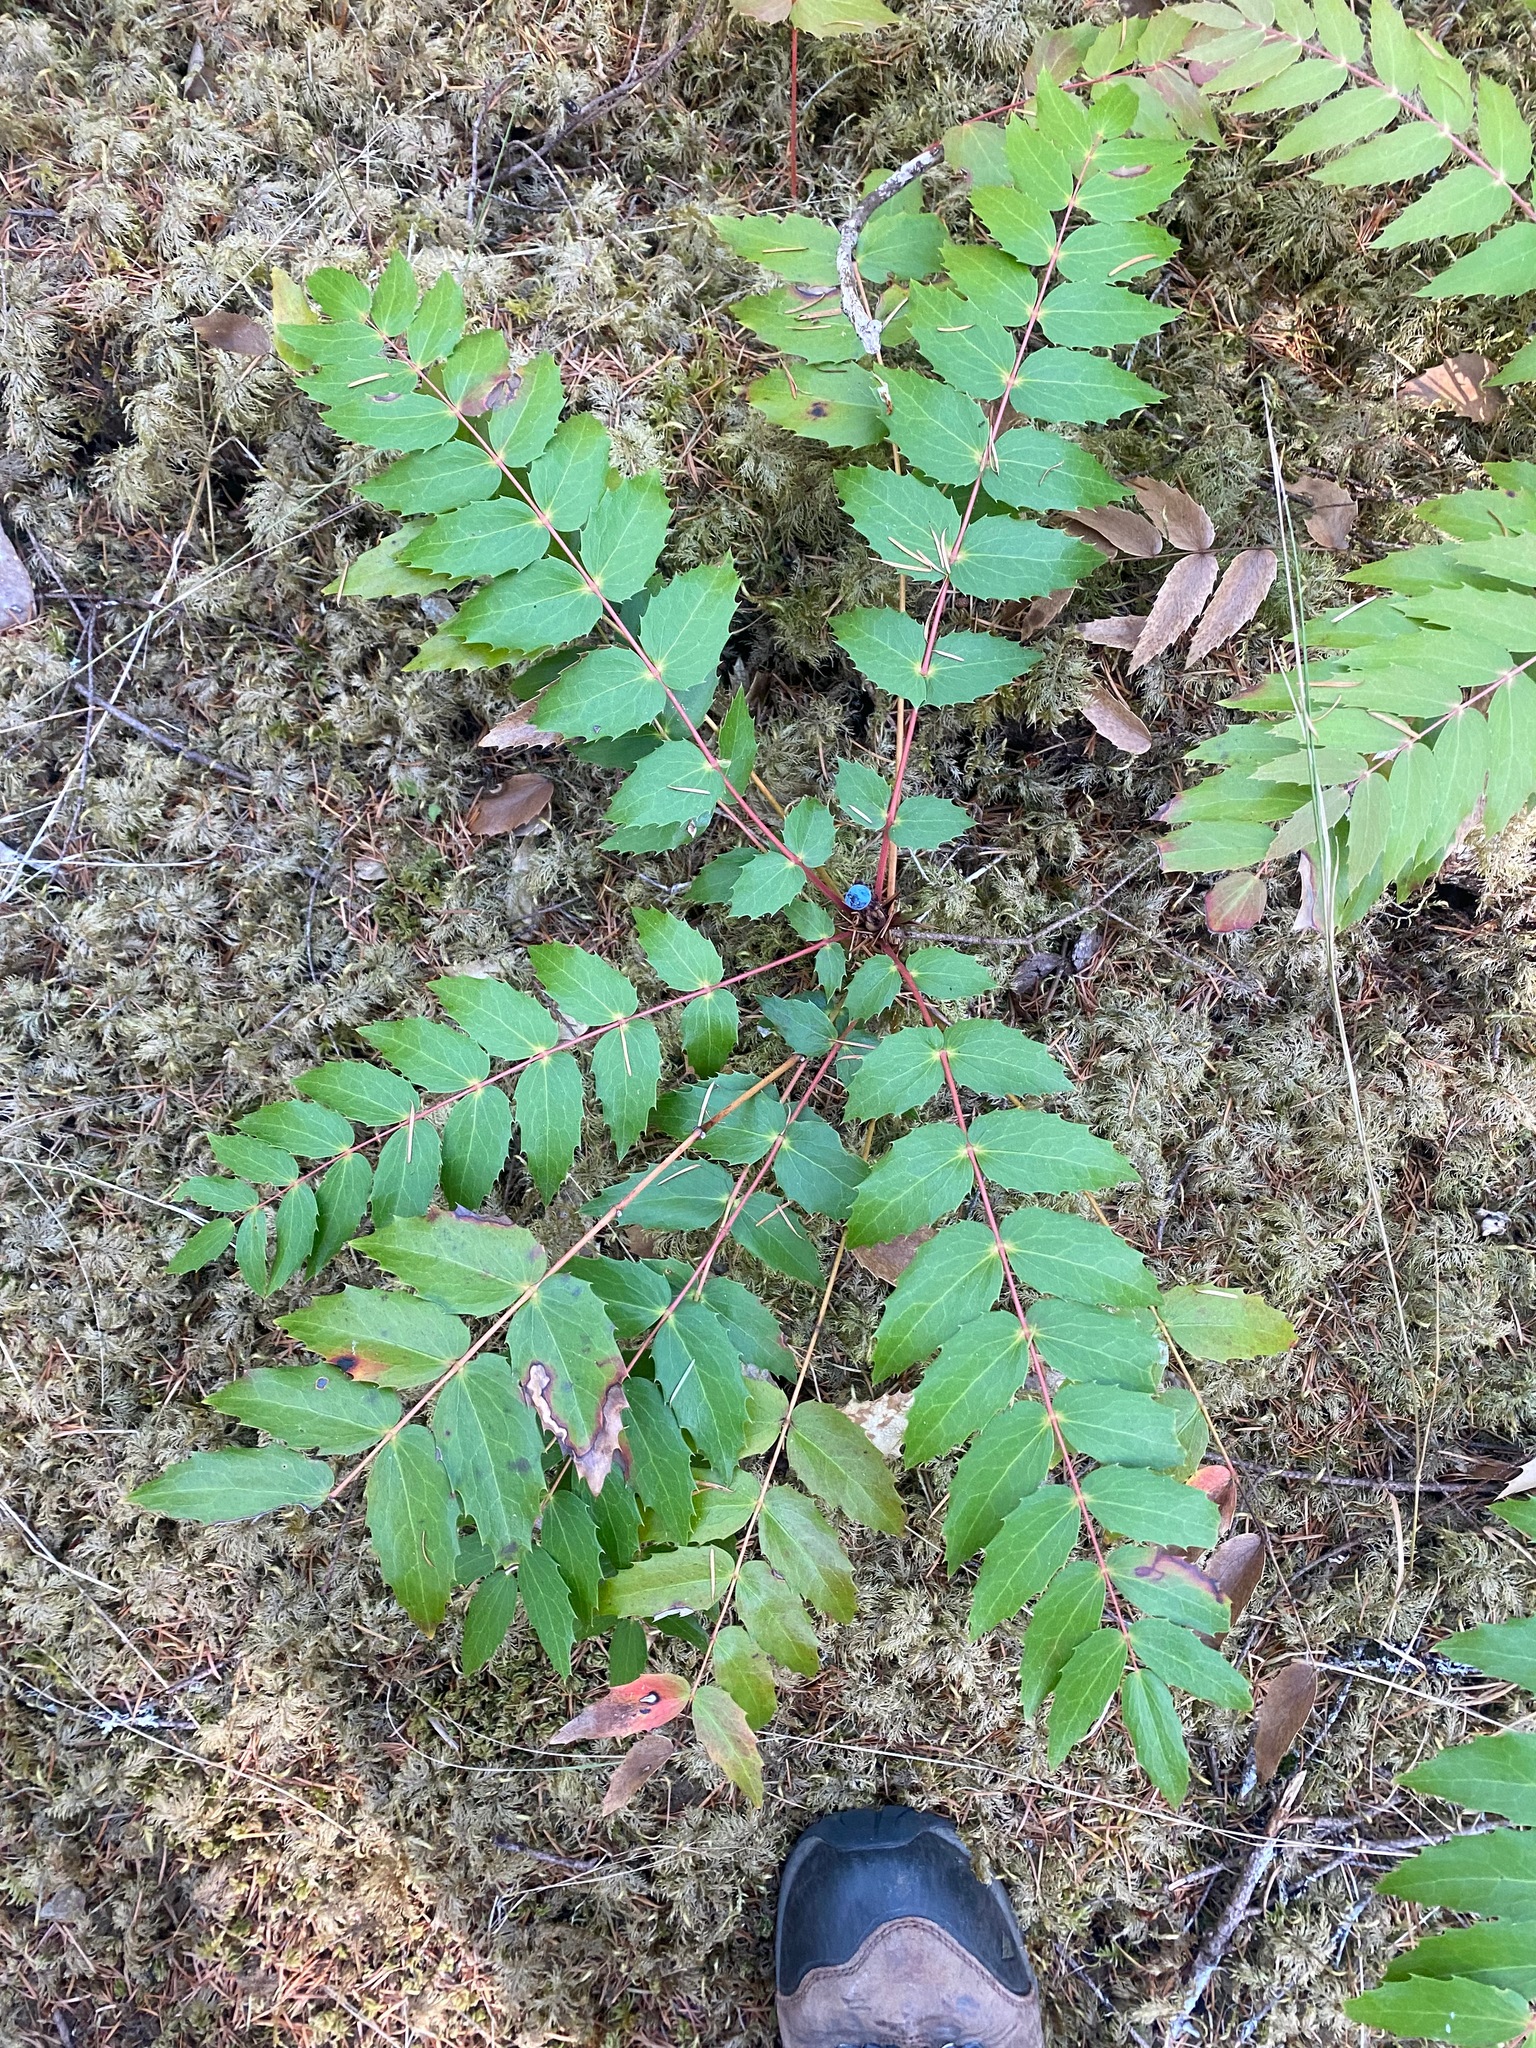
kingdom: Plantae
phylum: Tracheophyta
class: Magnoliopsida
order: Ranunculales
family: Berberidaceae
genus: Mahonia
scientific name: Mahonia nervosa
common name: Cascade oregon-grape
